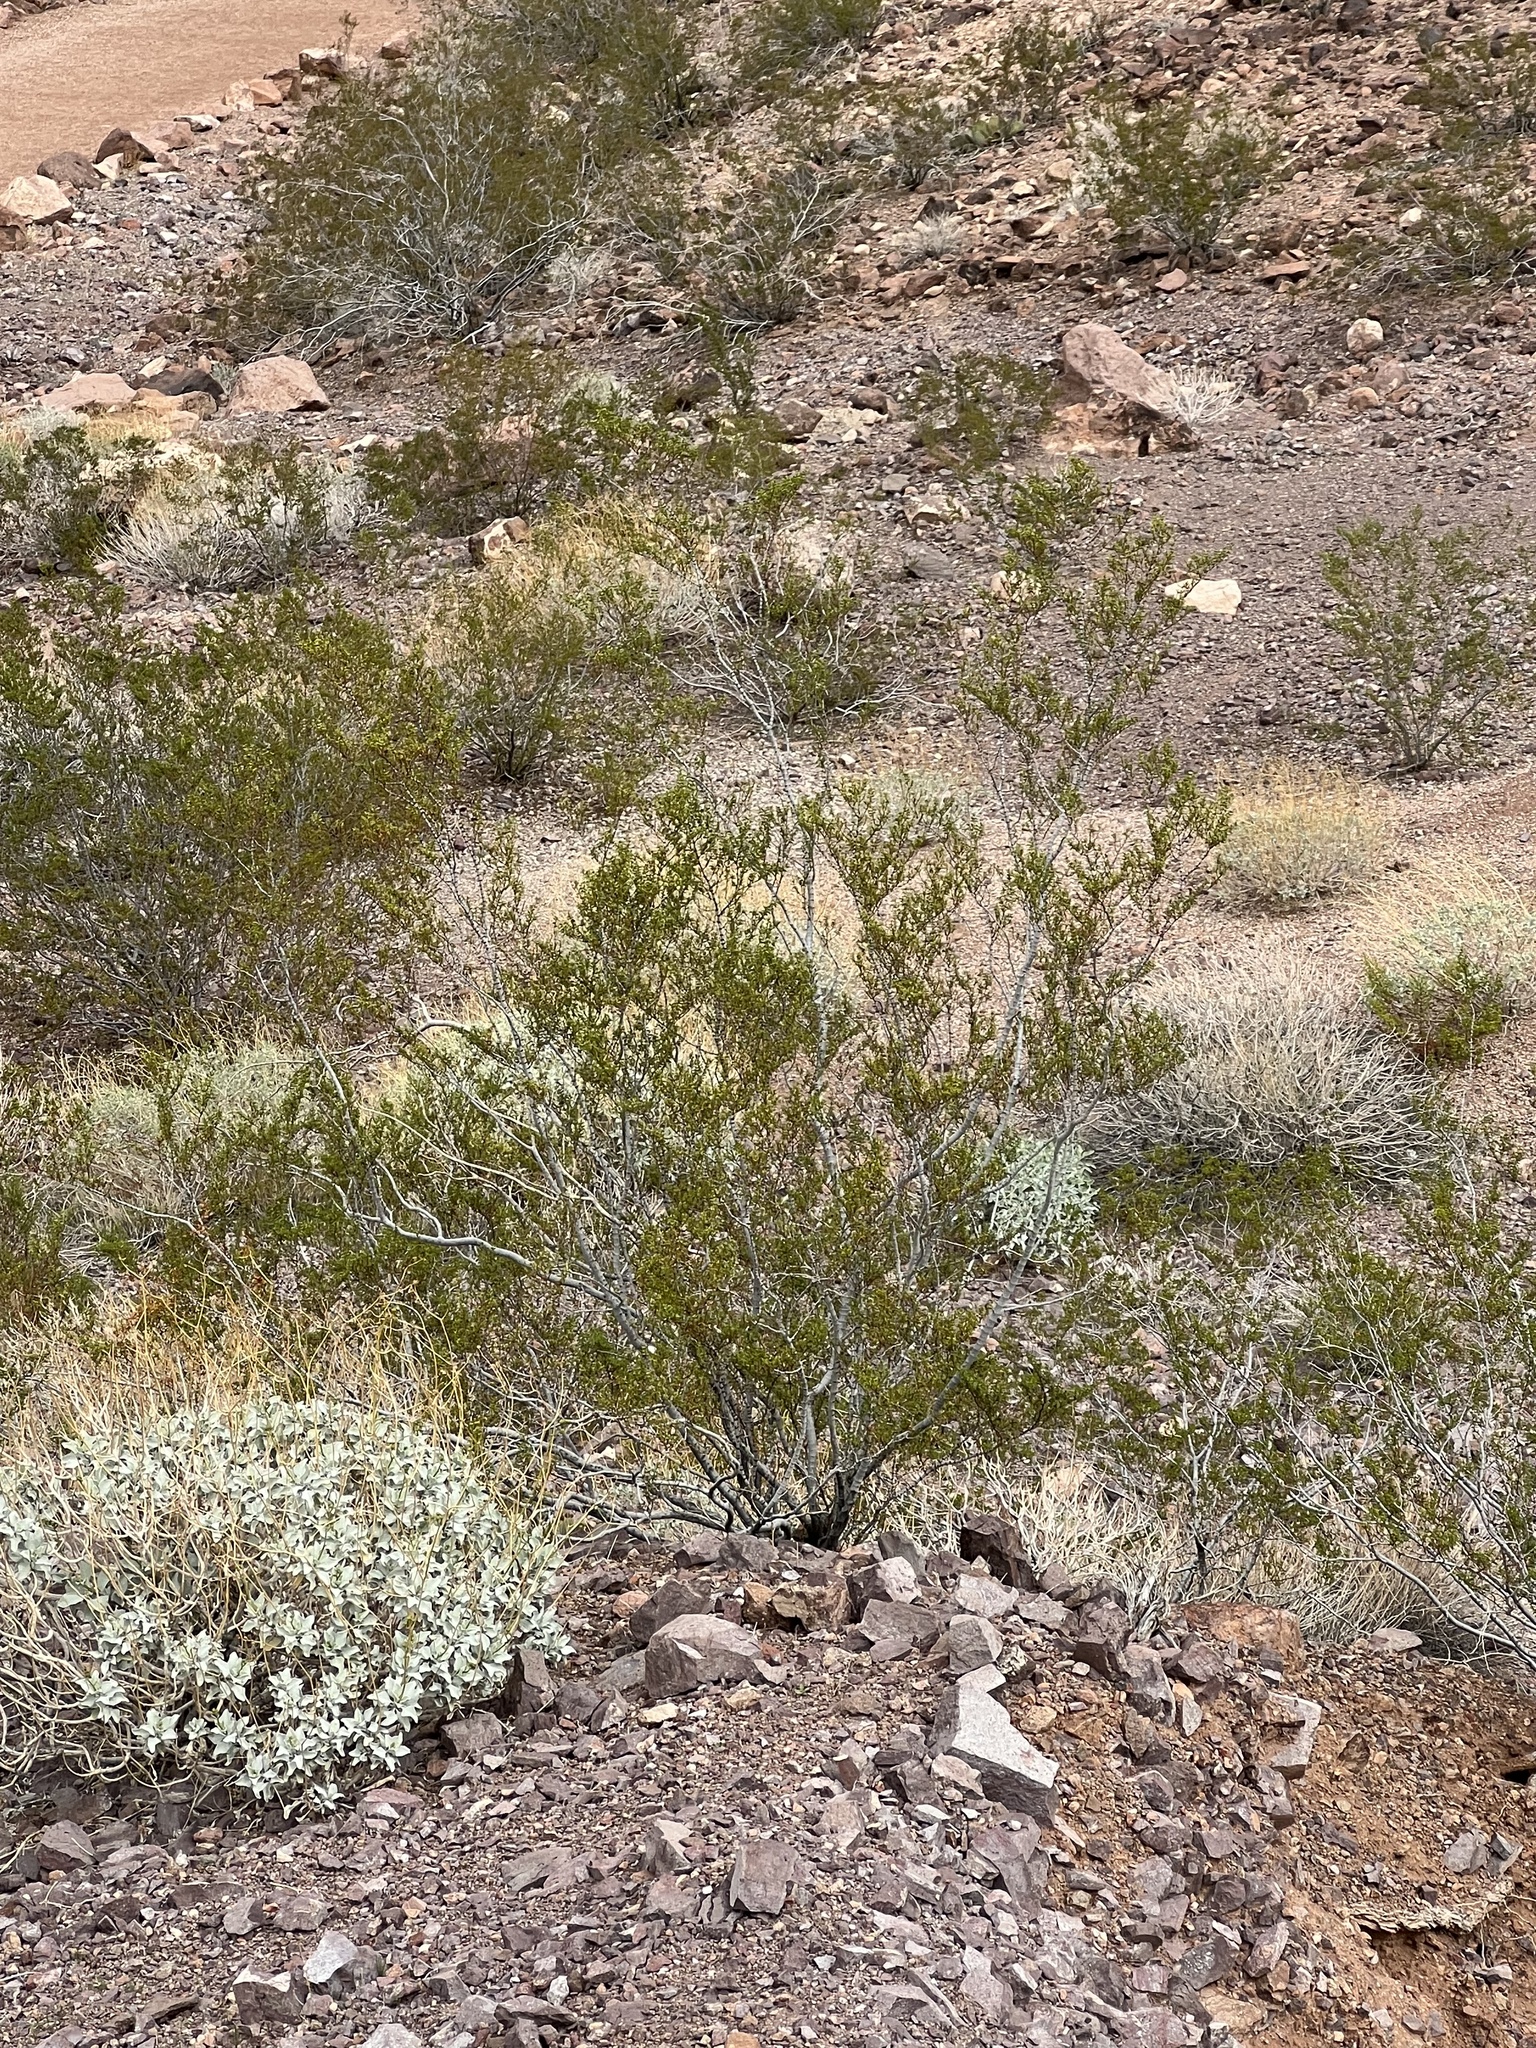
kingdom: Plantae
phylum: Tracheophyta
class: Magnoliopsida
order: Zygophyllales
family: Zygophyllaceae
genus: Larrea
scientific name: Larrea tridentata
